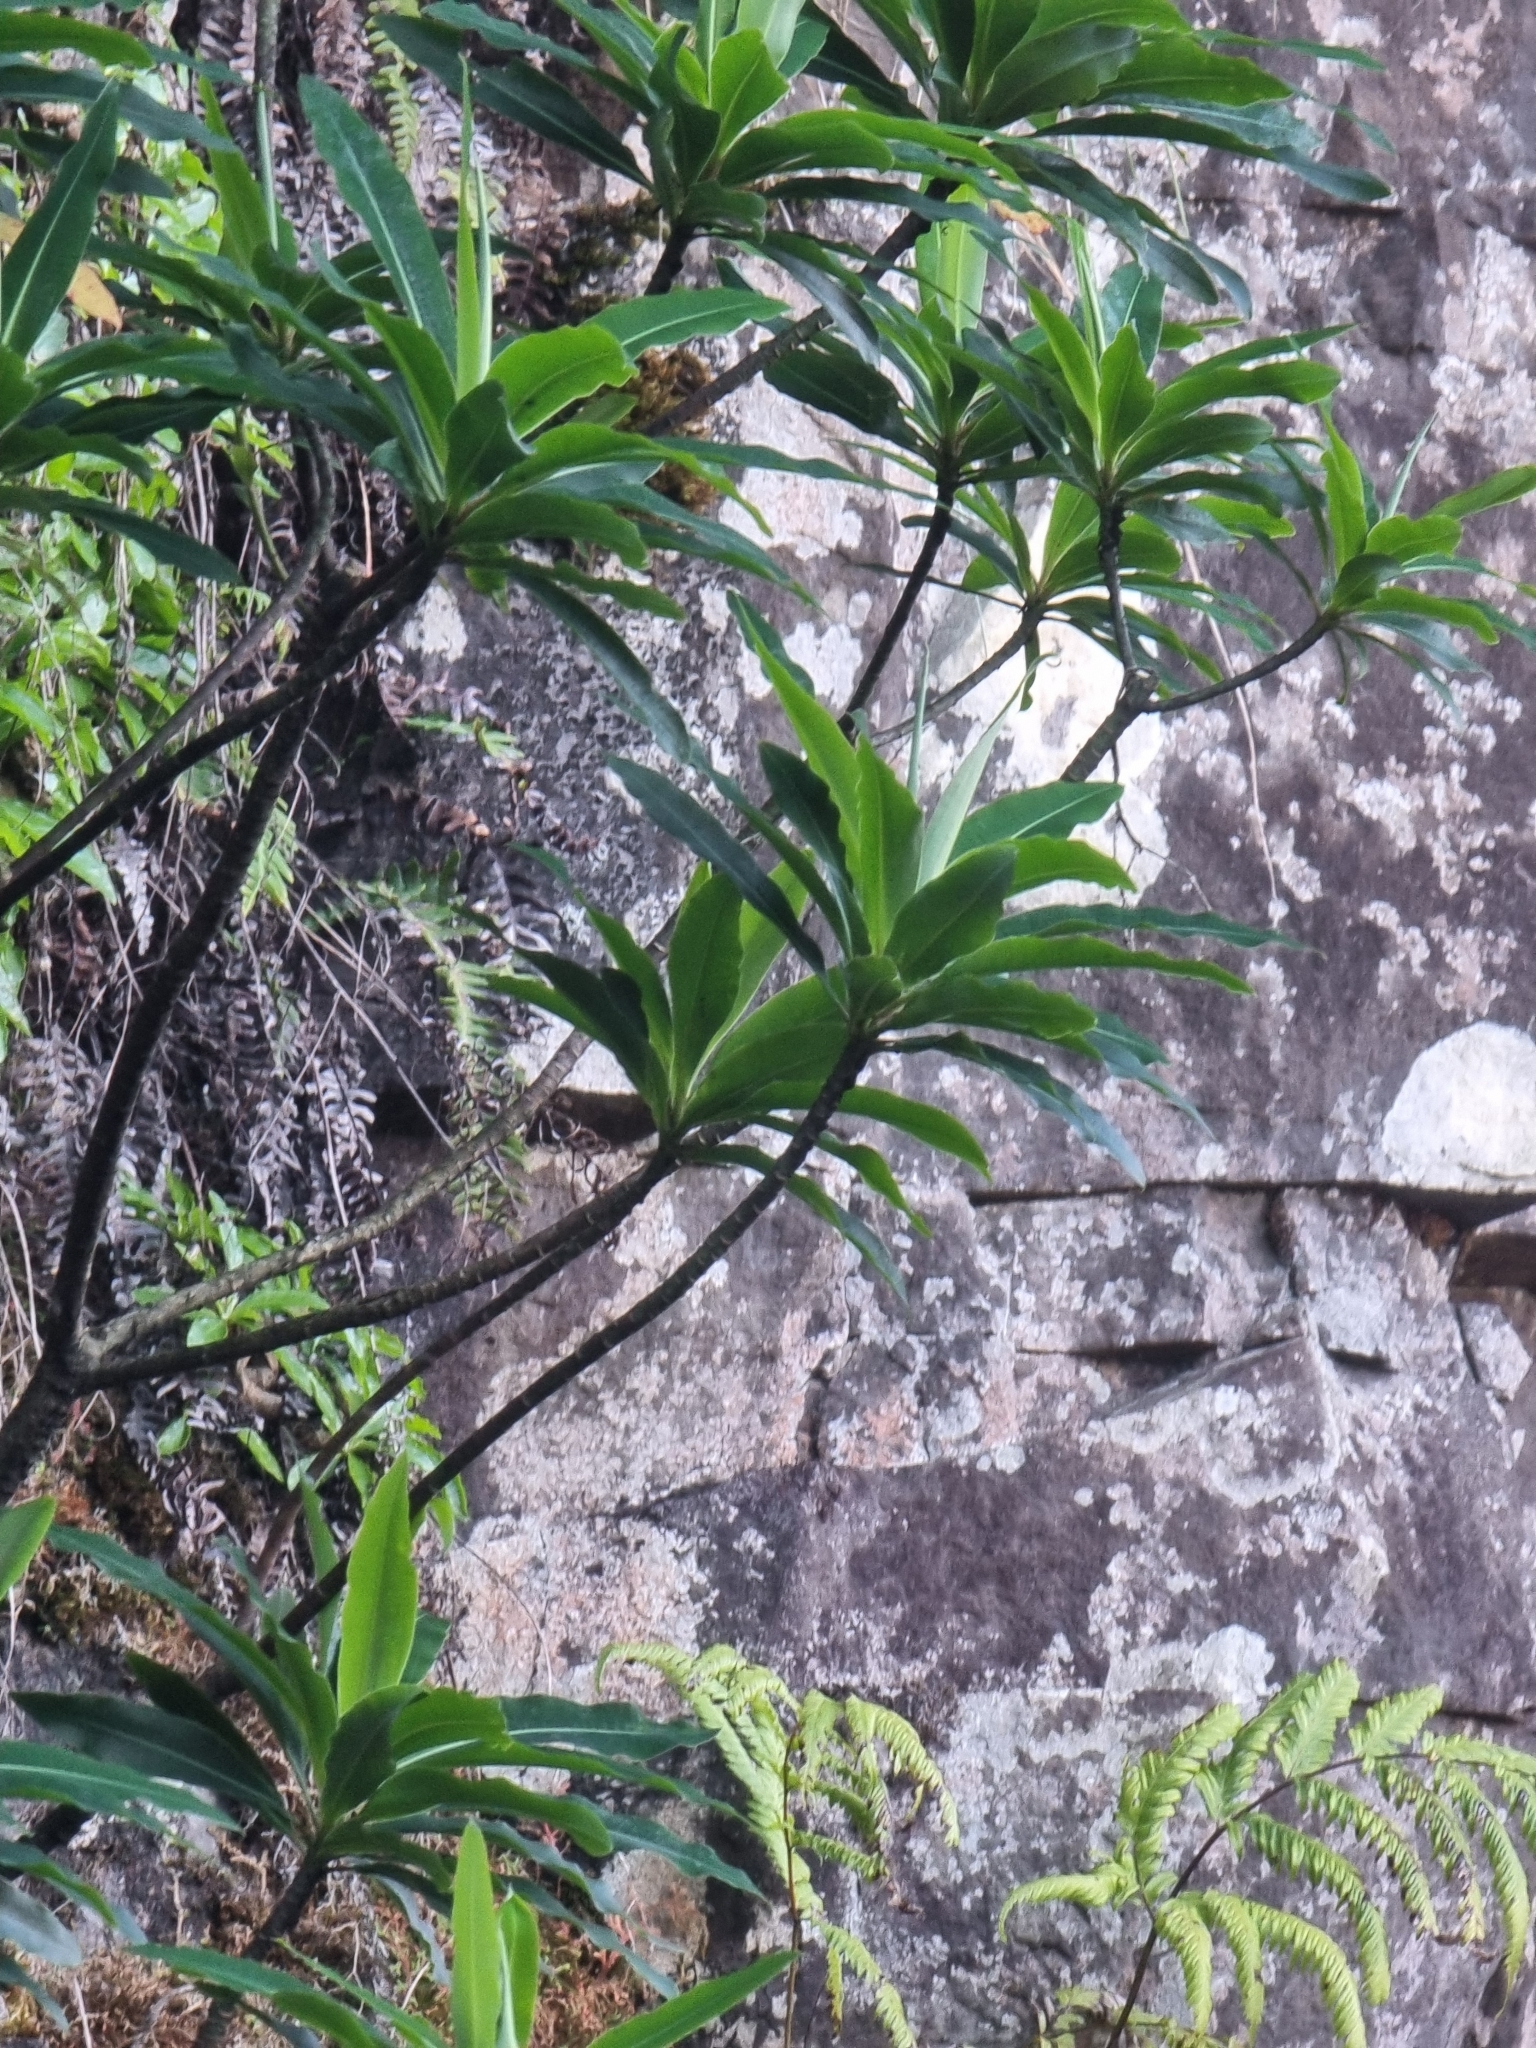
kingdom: Plantae
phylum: Tracheophyta
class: Magnoliopsida
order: Malpighiales
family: Euphorbiaceae
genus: Euphorbia
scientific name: Euphorbia mellifera
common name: Canary spurge
